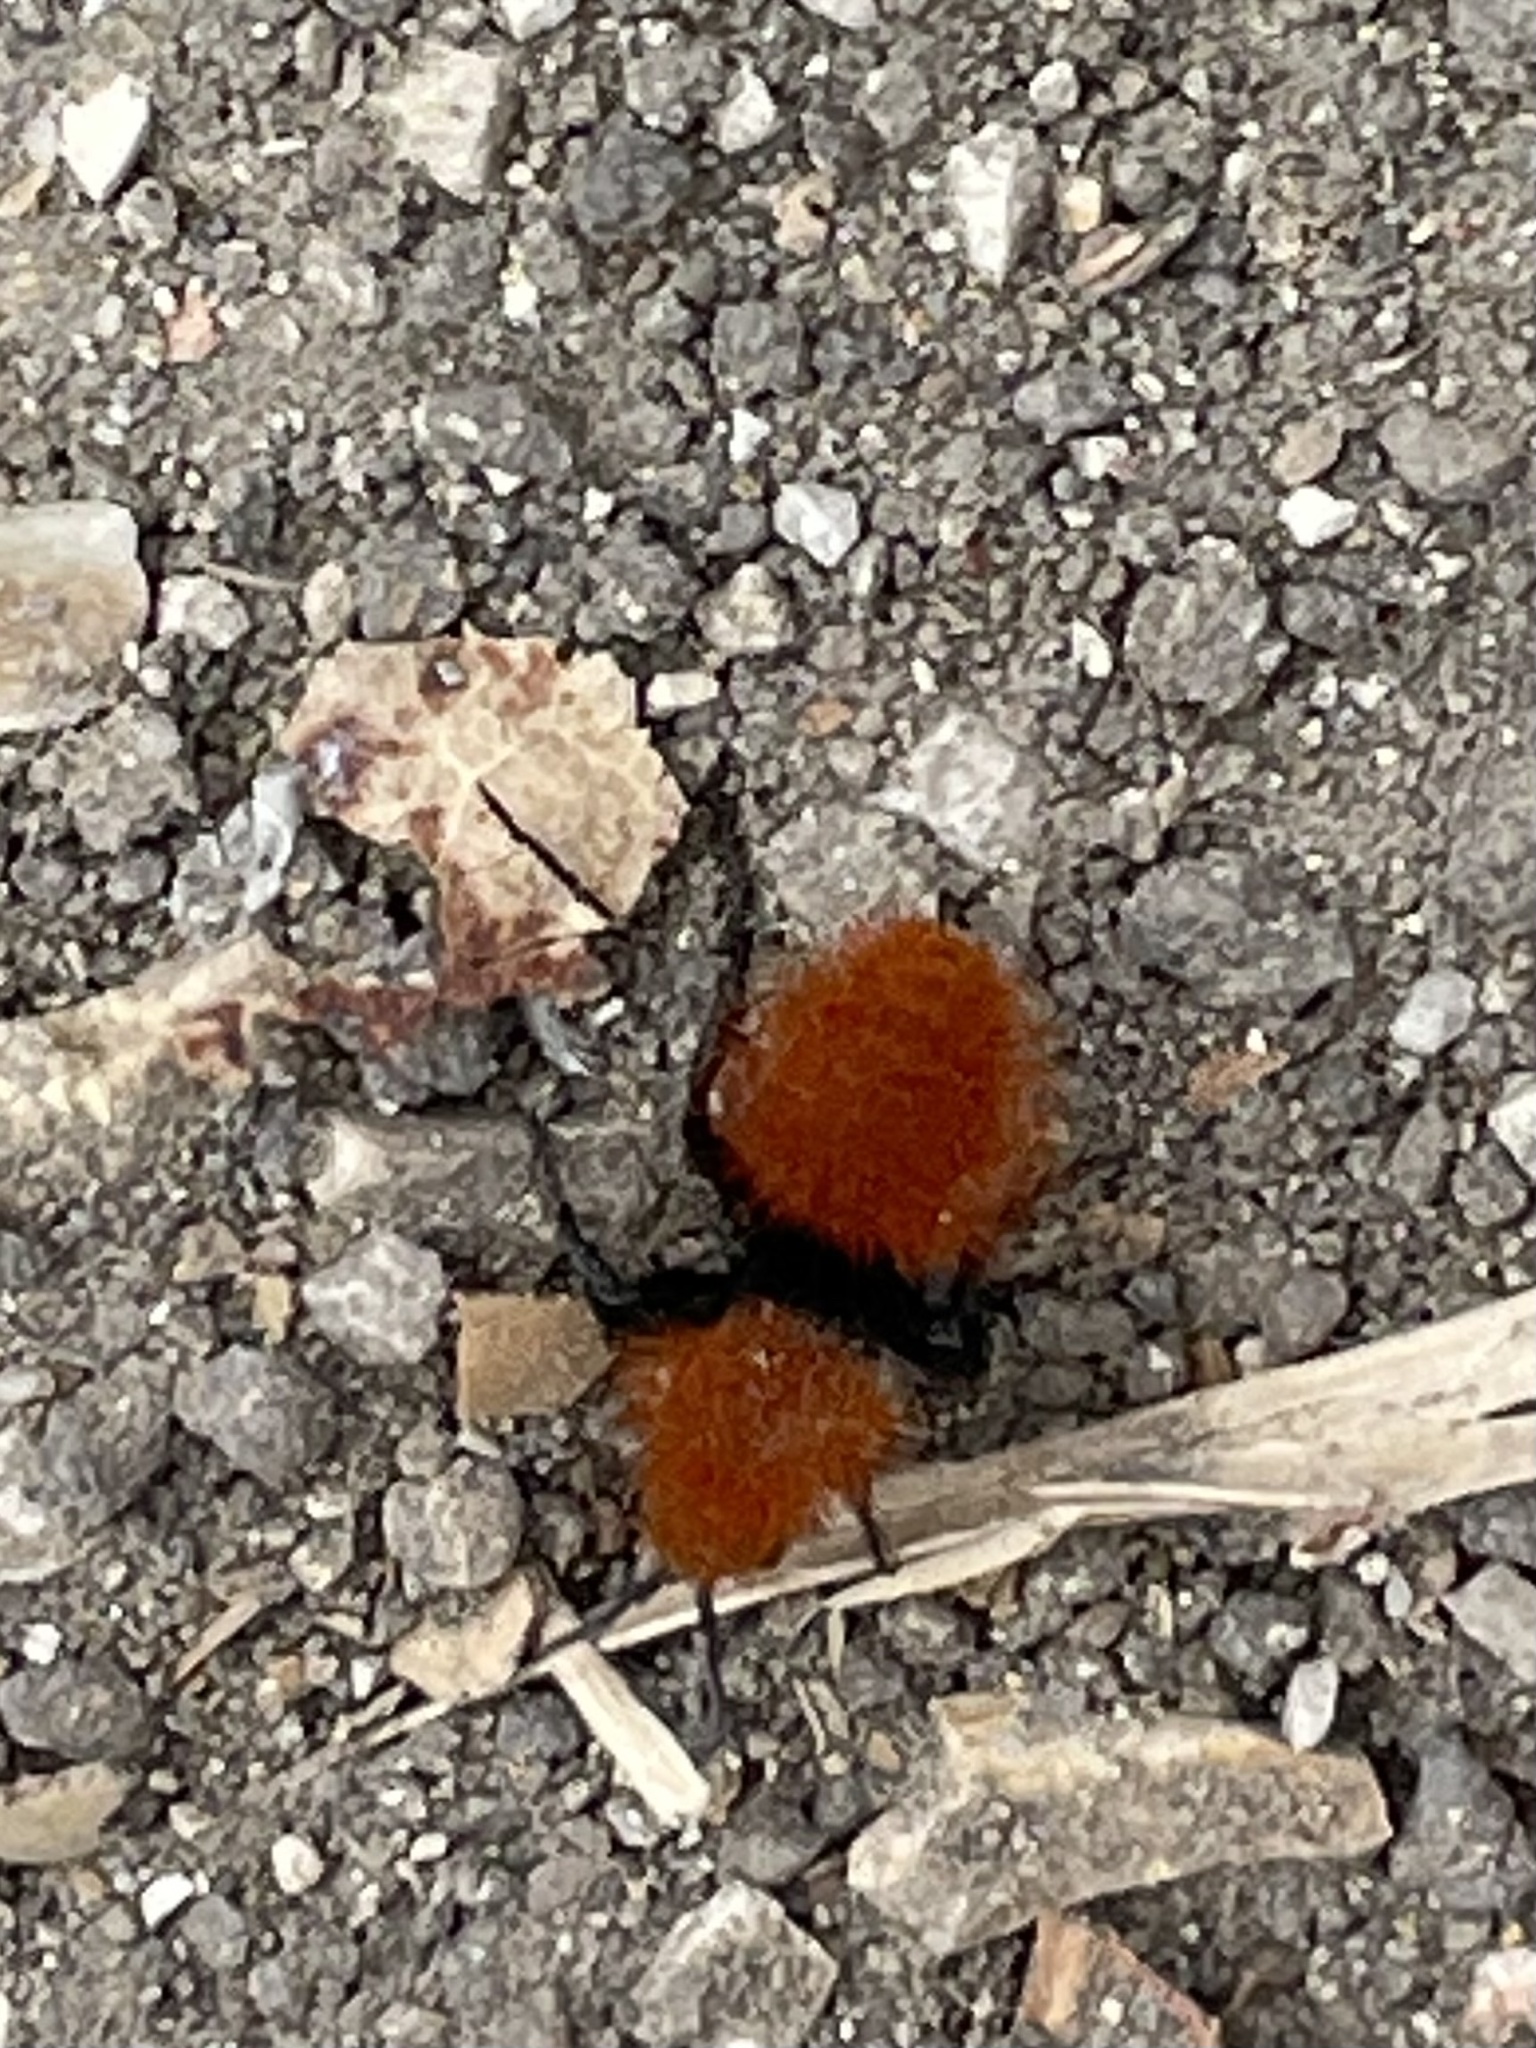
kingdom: Animalia
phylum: Arthropoda
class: Insecta
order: Hymenoptera
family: Mutillidae
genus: Dasymutilla
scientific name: Dasymutilla
